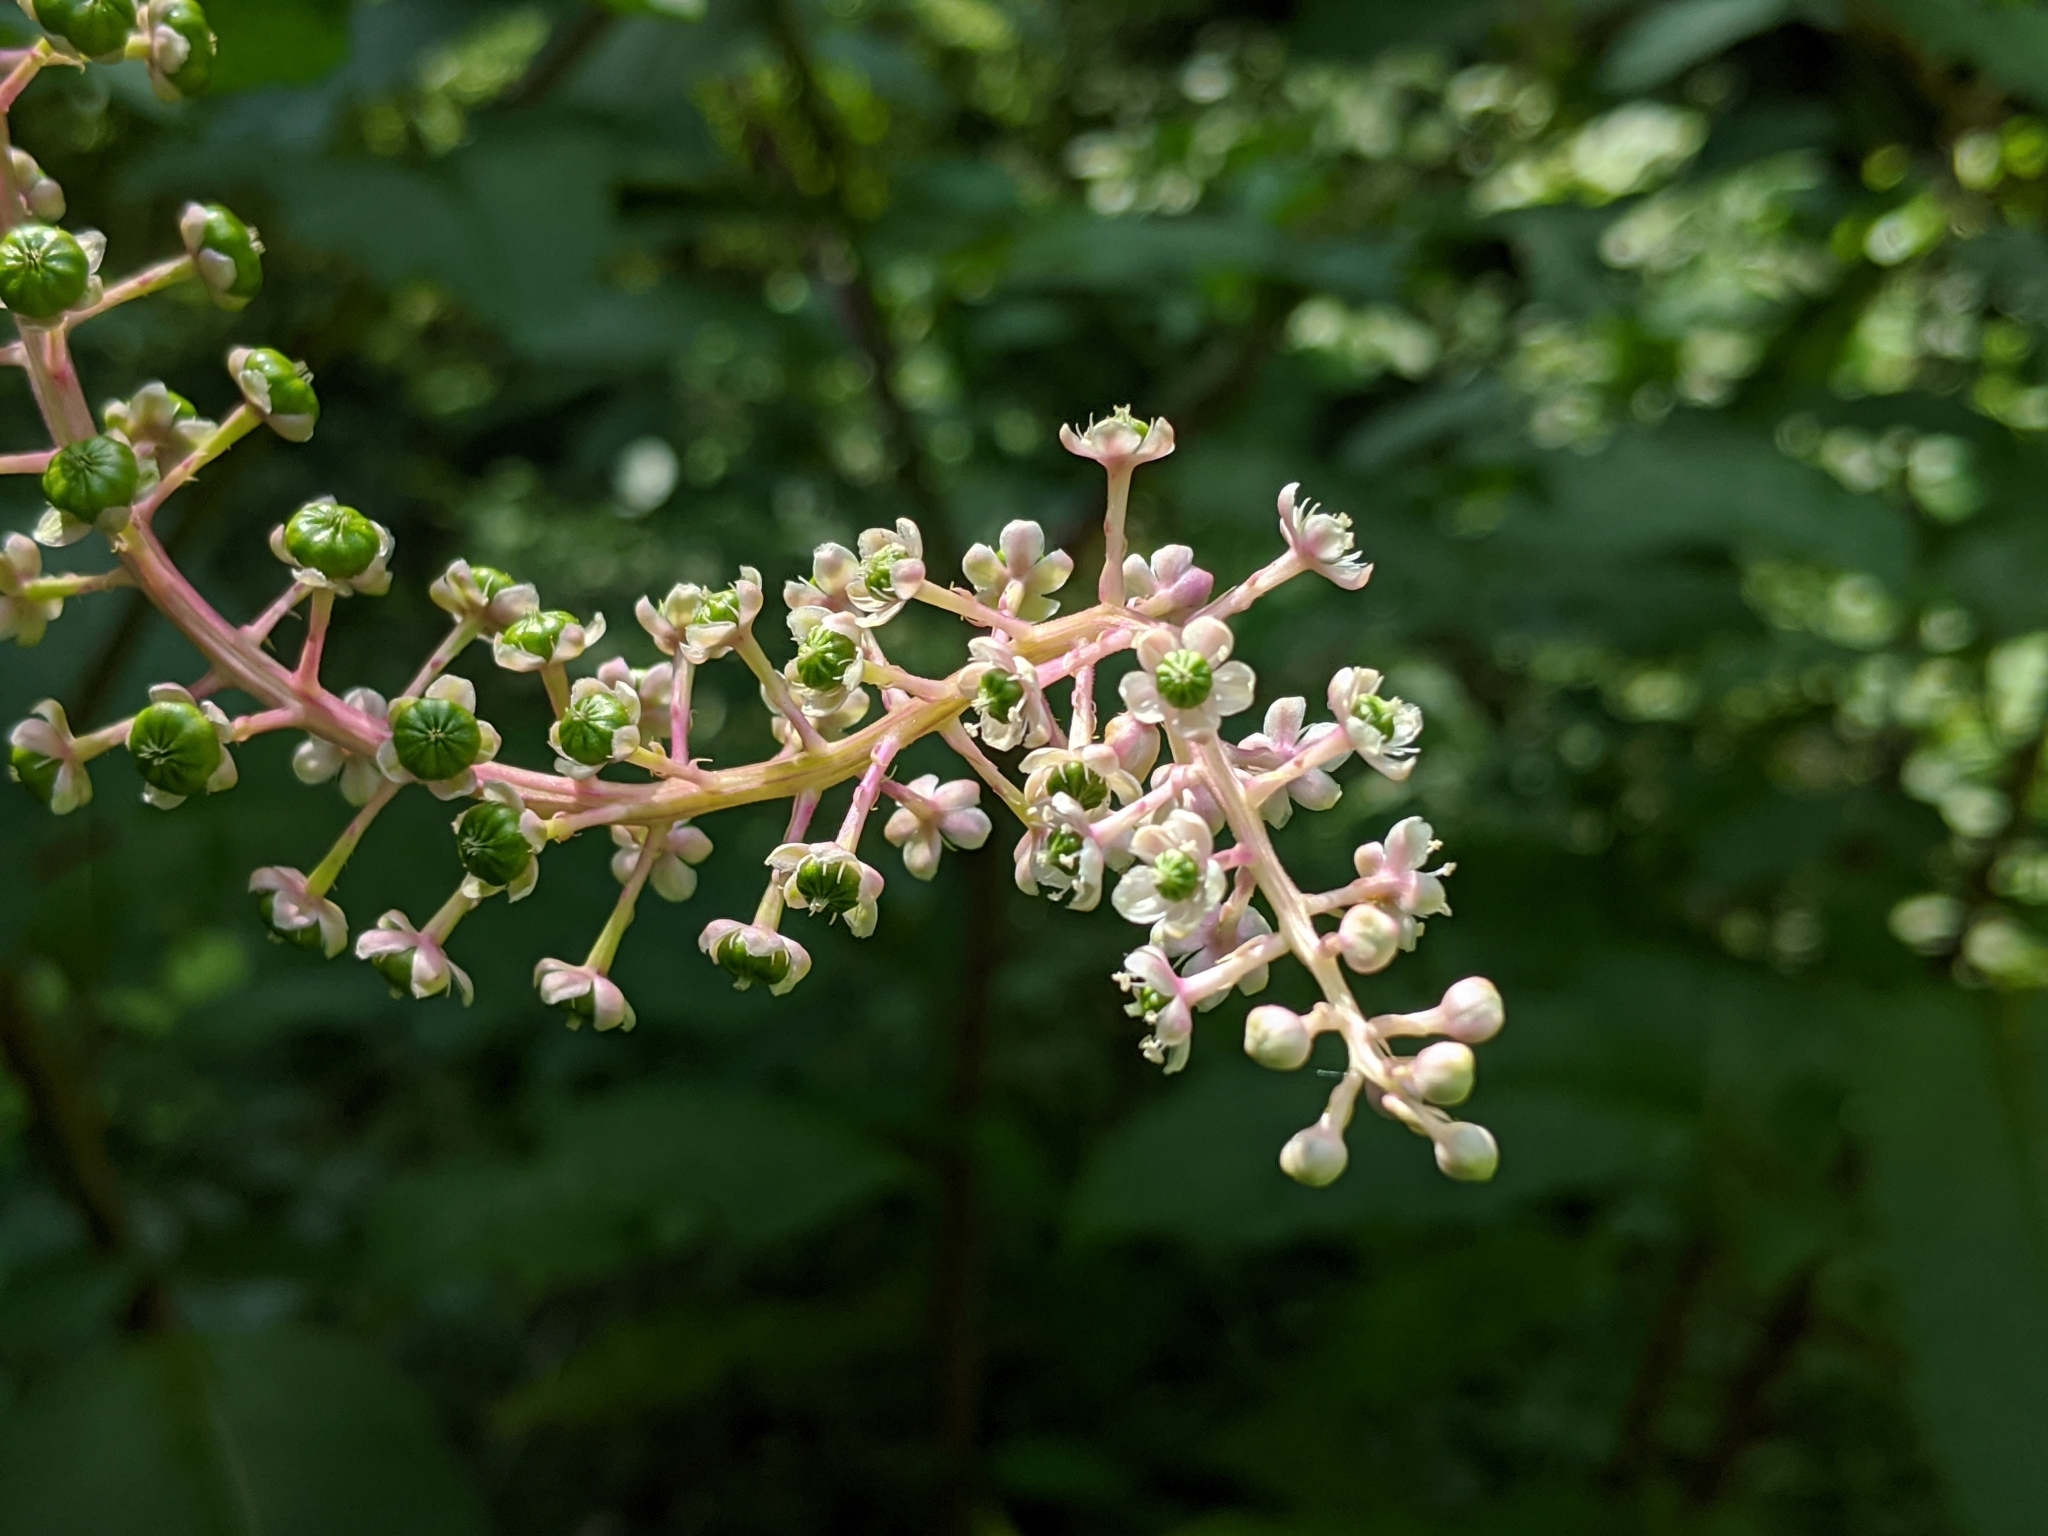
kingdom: Plantae
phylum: Tracheophyta
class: Magnoliopsida
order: Caryophyllales
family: Phytolaccaceae
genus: Phytolacca
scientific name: Phytolacca americana
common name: American pokeweed
